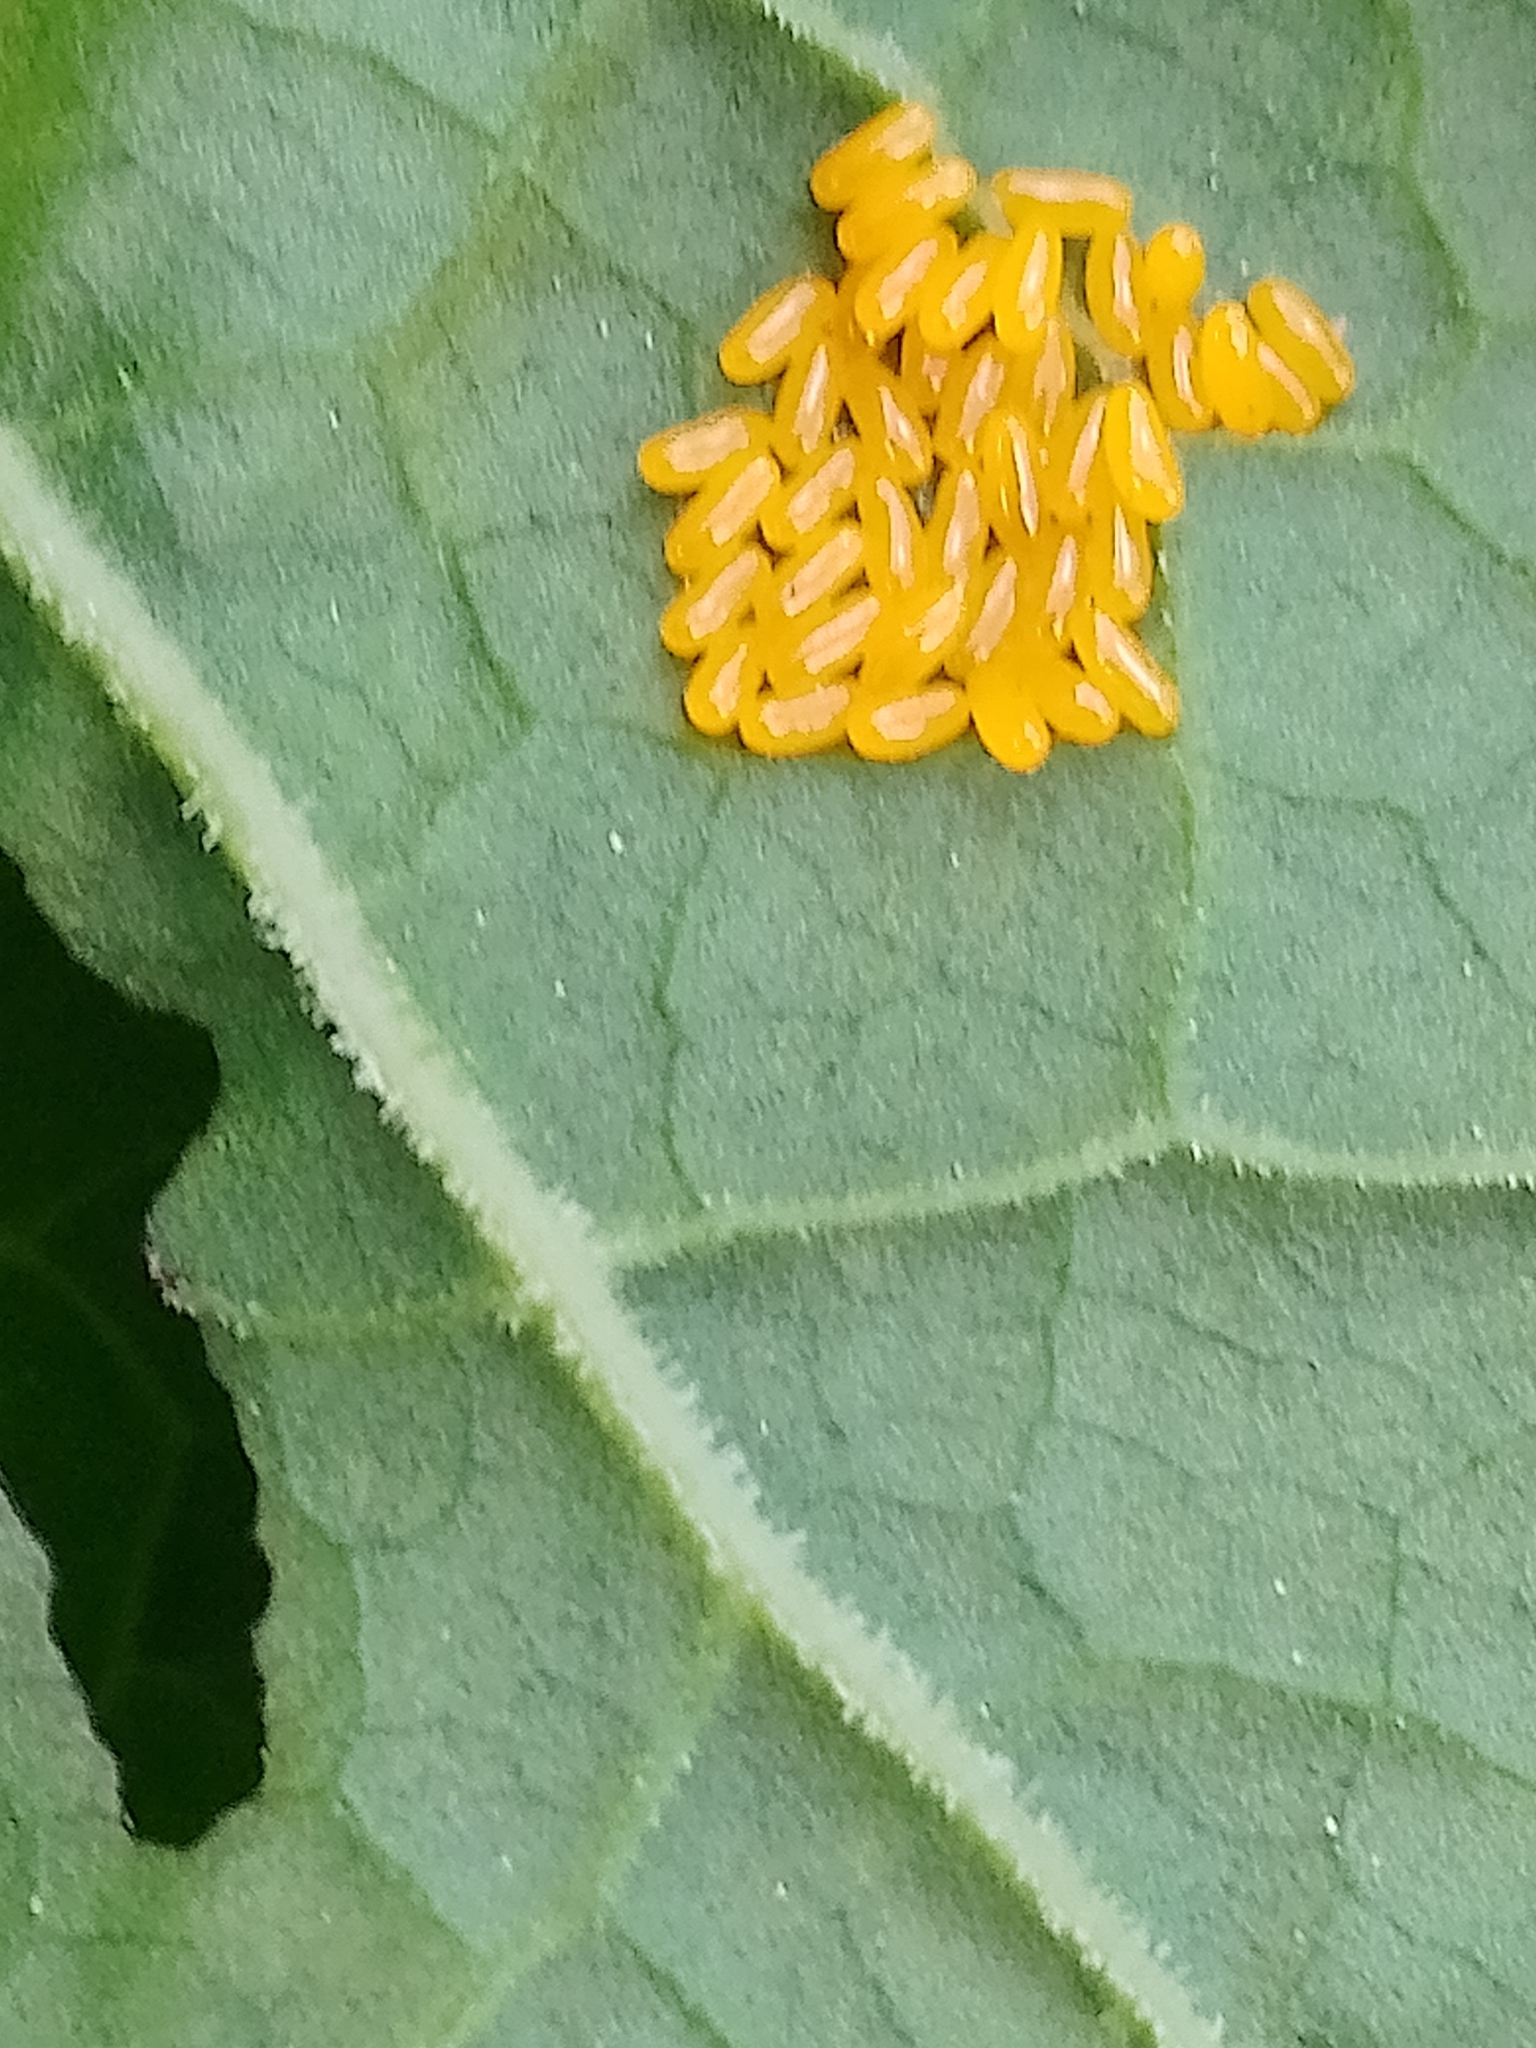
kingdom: Animalia
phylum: Arthropoda
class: Insecta
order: Coleoptera
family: Chrysomelidae
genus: Gastrophysa
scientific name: Gastrophysa viridula
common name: Green dock beetle
